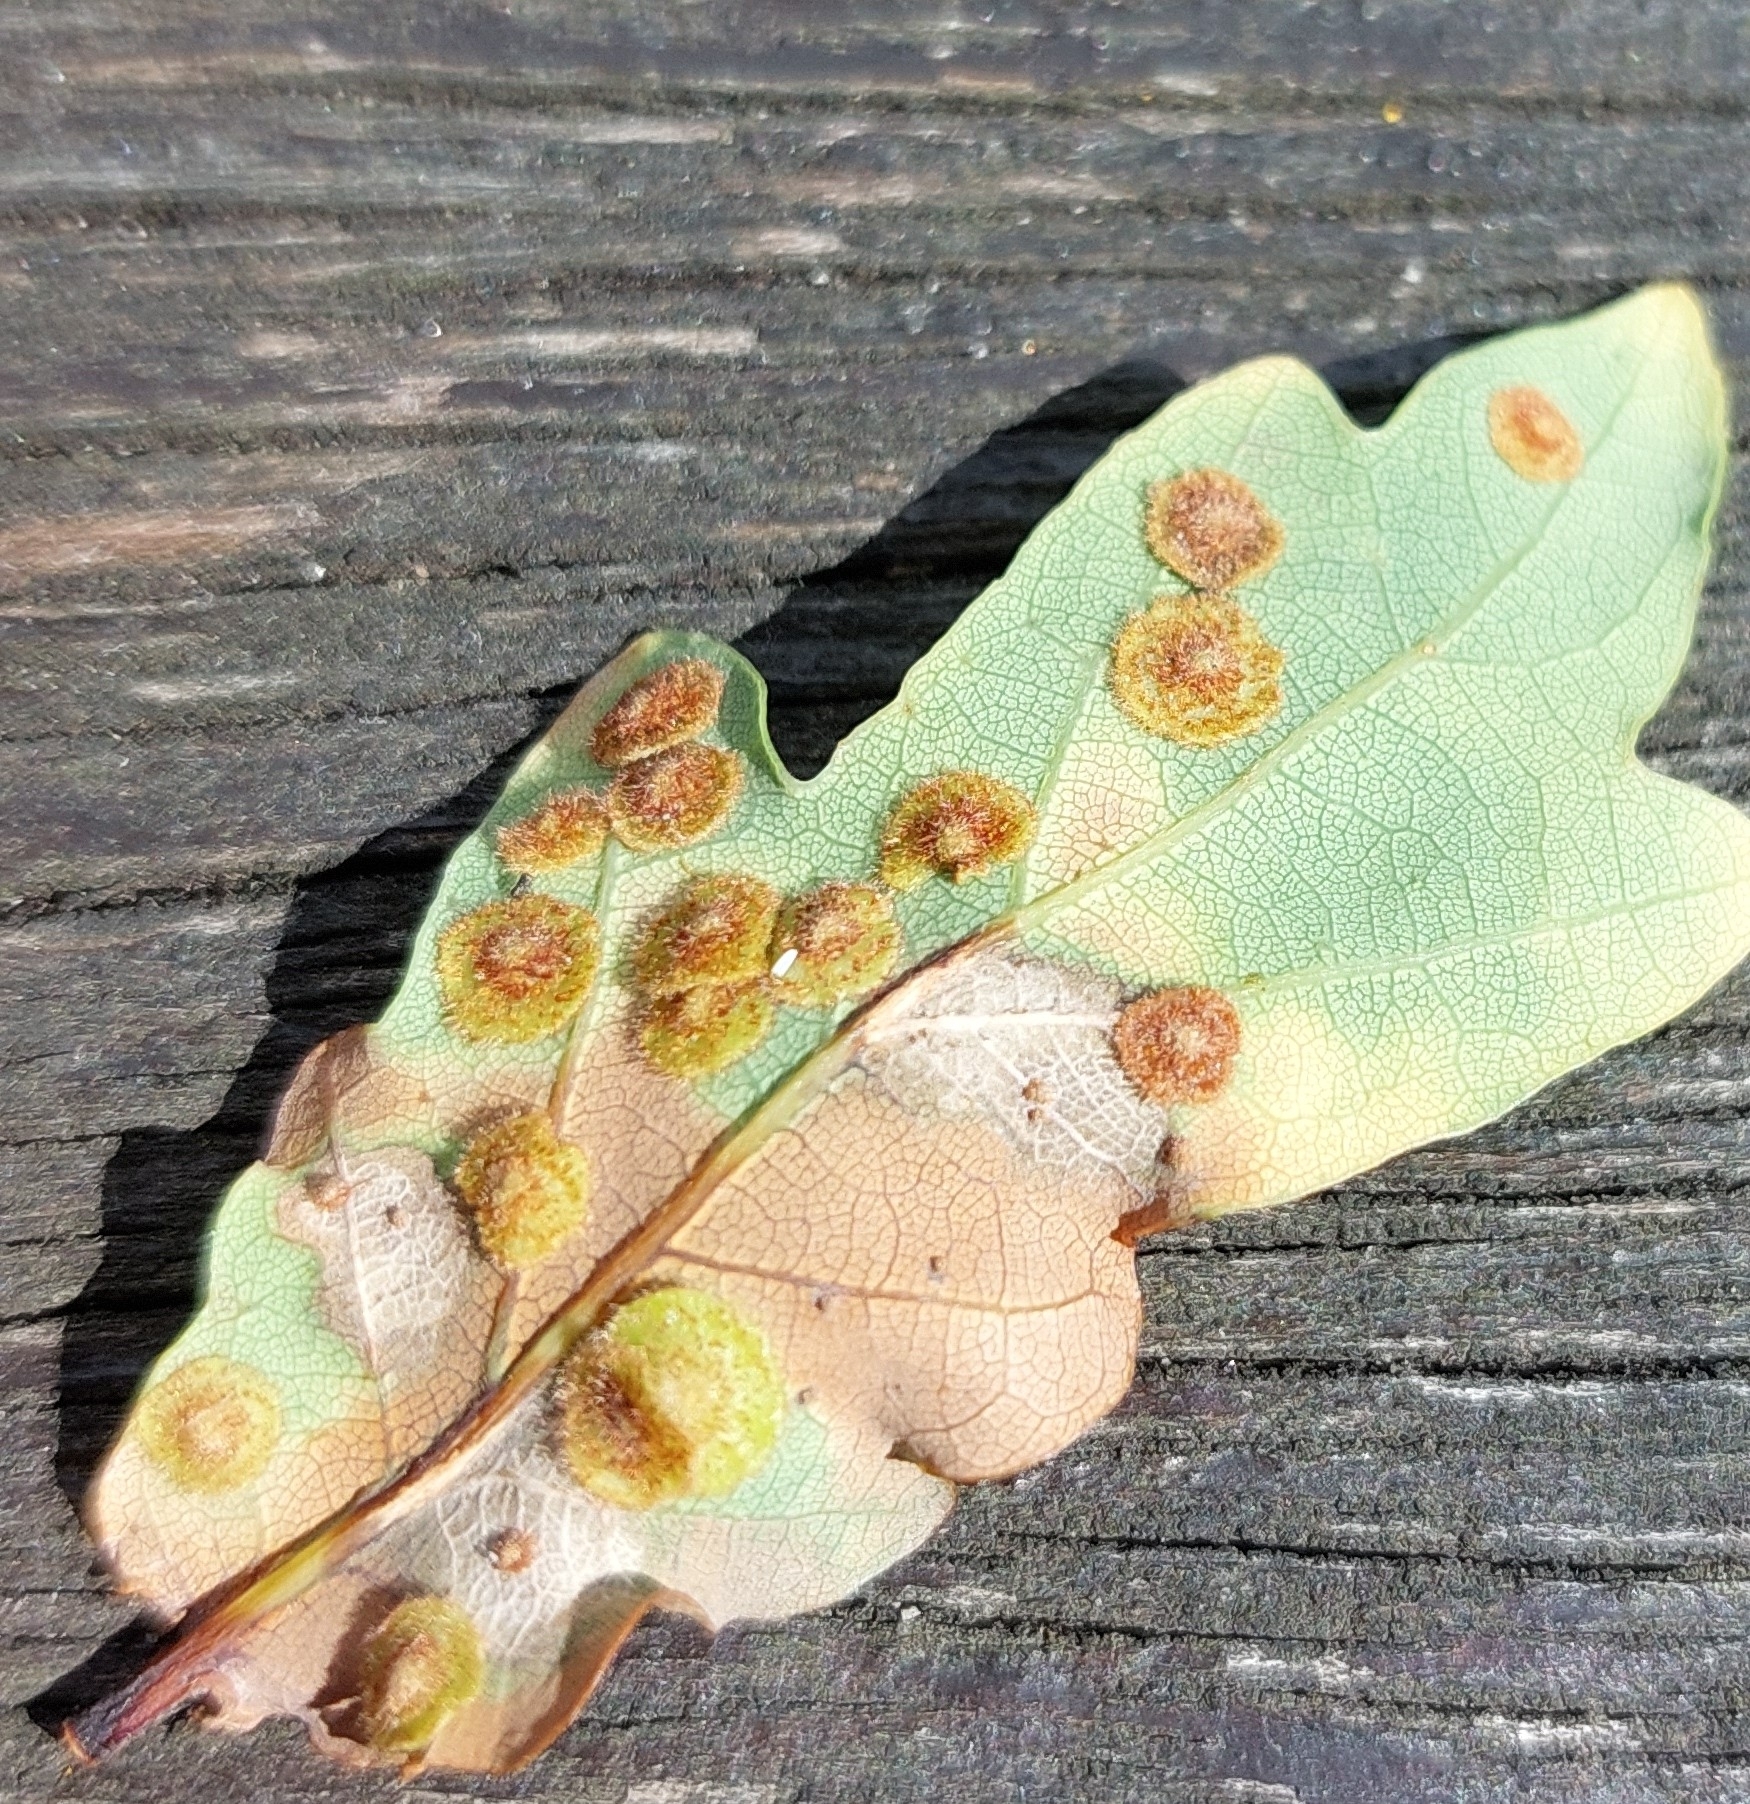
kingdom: Animalia
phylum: Arthropoda
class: Insecta
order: Hymenoptera
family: Cynipidae
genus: Neuroterus
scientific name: Neuroterus quercusbaccarum
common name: Common spangle gall
